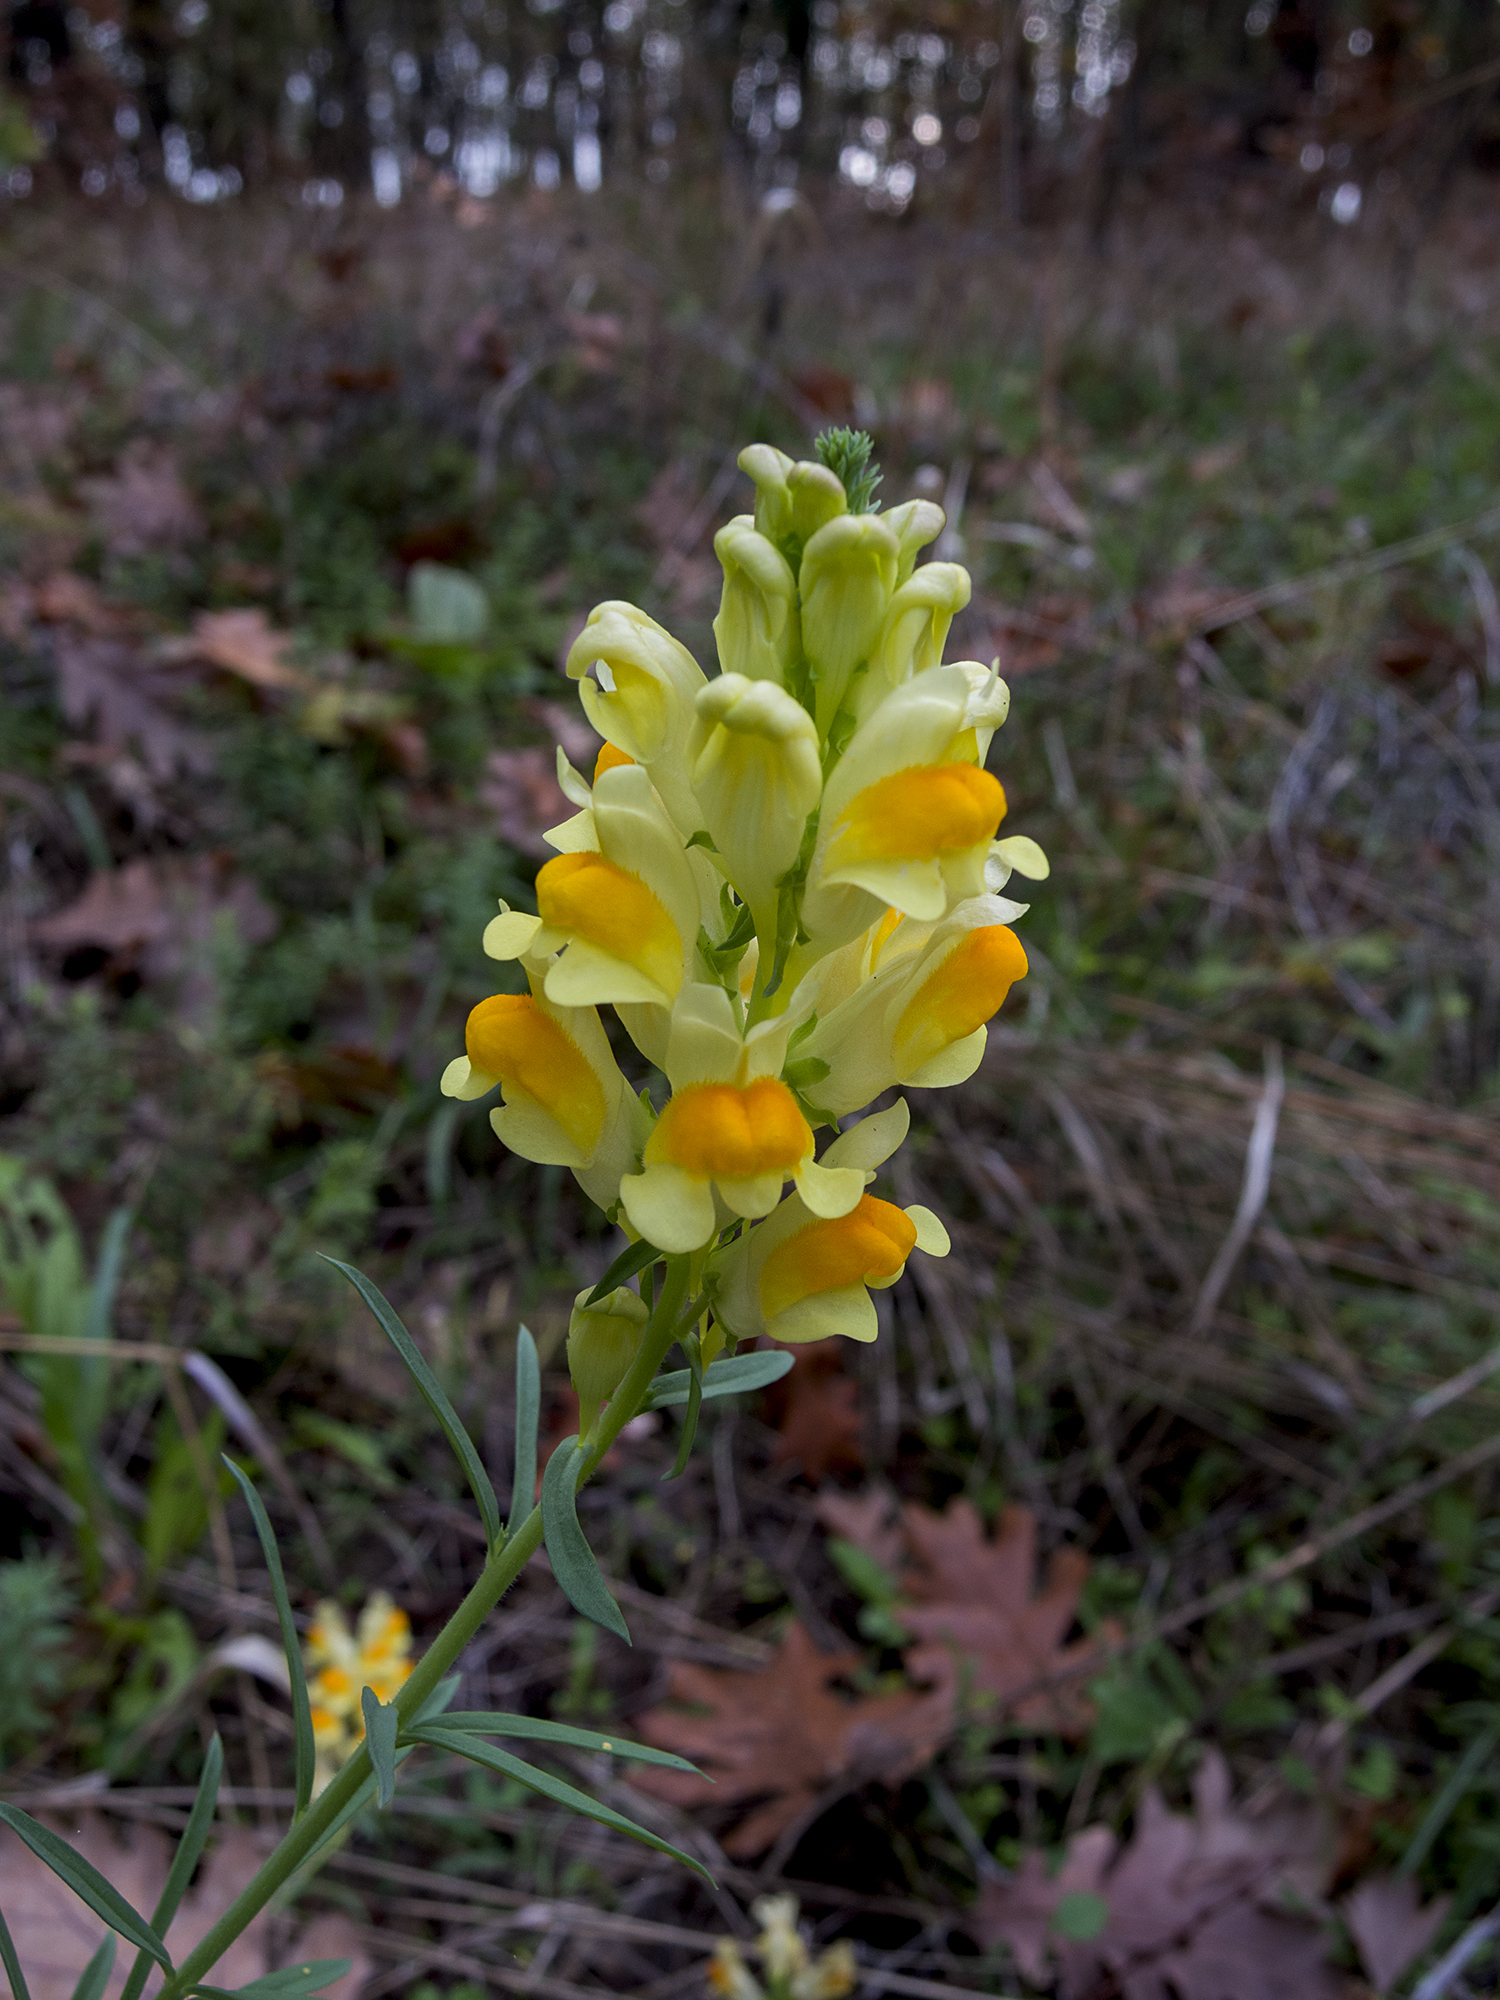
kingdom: Plantae
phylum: Tracheophyta
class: Magnoliopsida
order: Lamiales
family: Plantaginaceae
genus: Linaria
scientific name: Linaria vulgaris
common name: Butter and eggs
